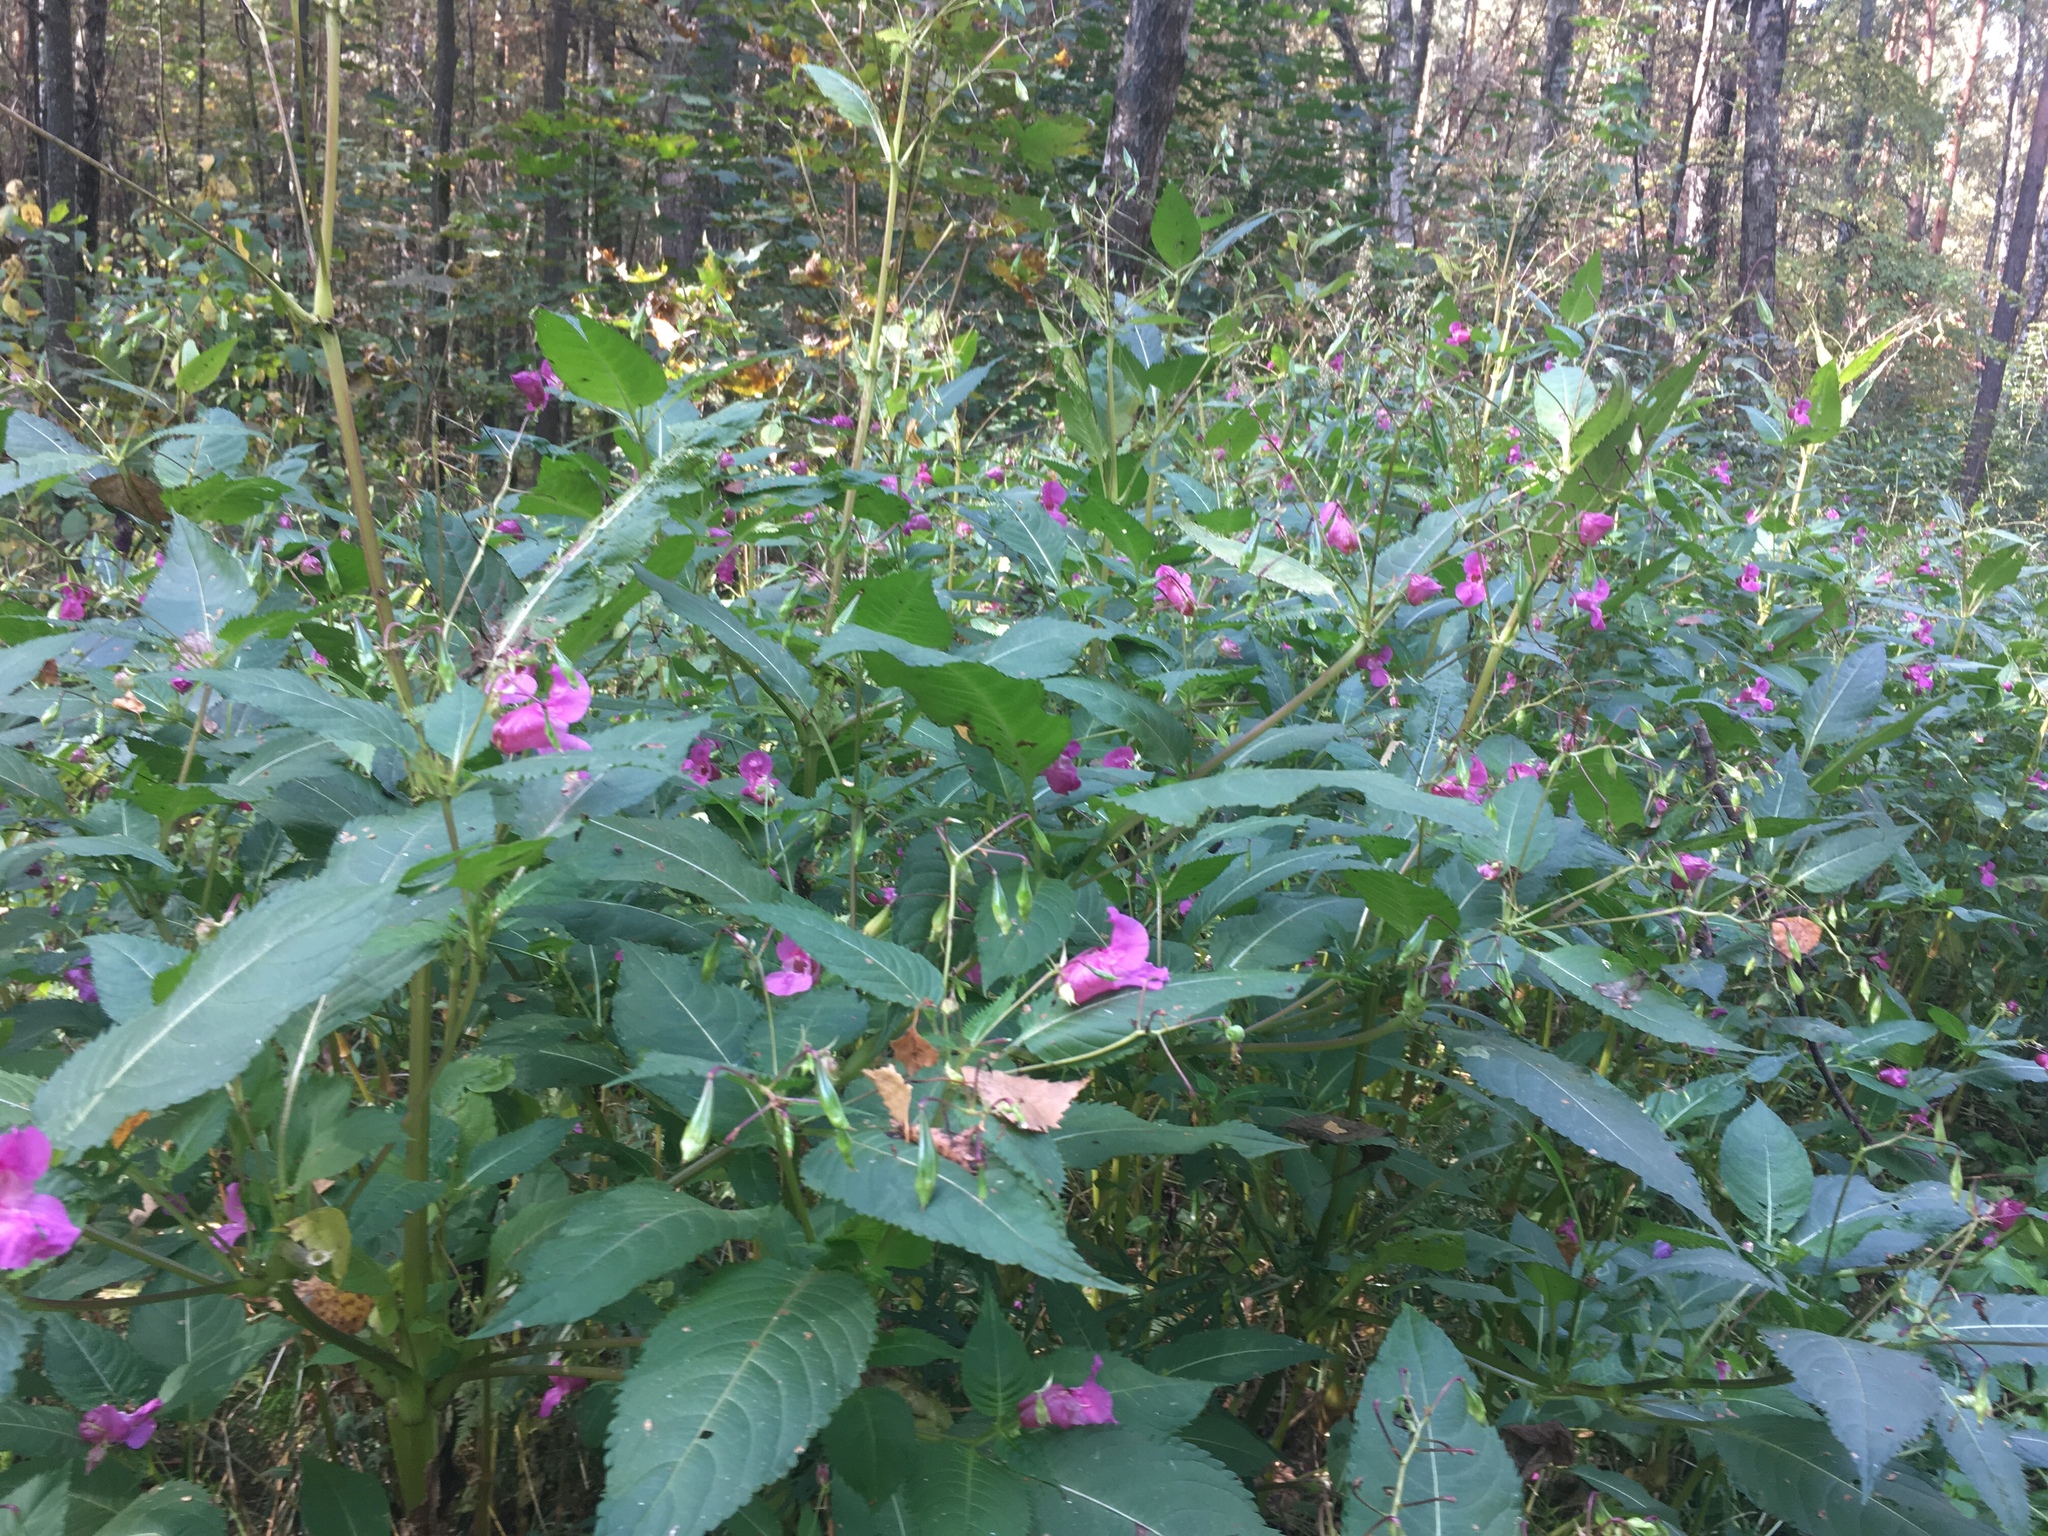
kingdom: Plantae
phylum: Tracheophyta
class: Magnoliopsida
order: Ericales
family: Balsaminaceae
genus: Impatiens
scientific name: Impatiens glandulifera
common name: Himalayan balsam
